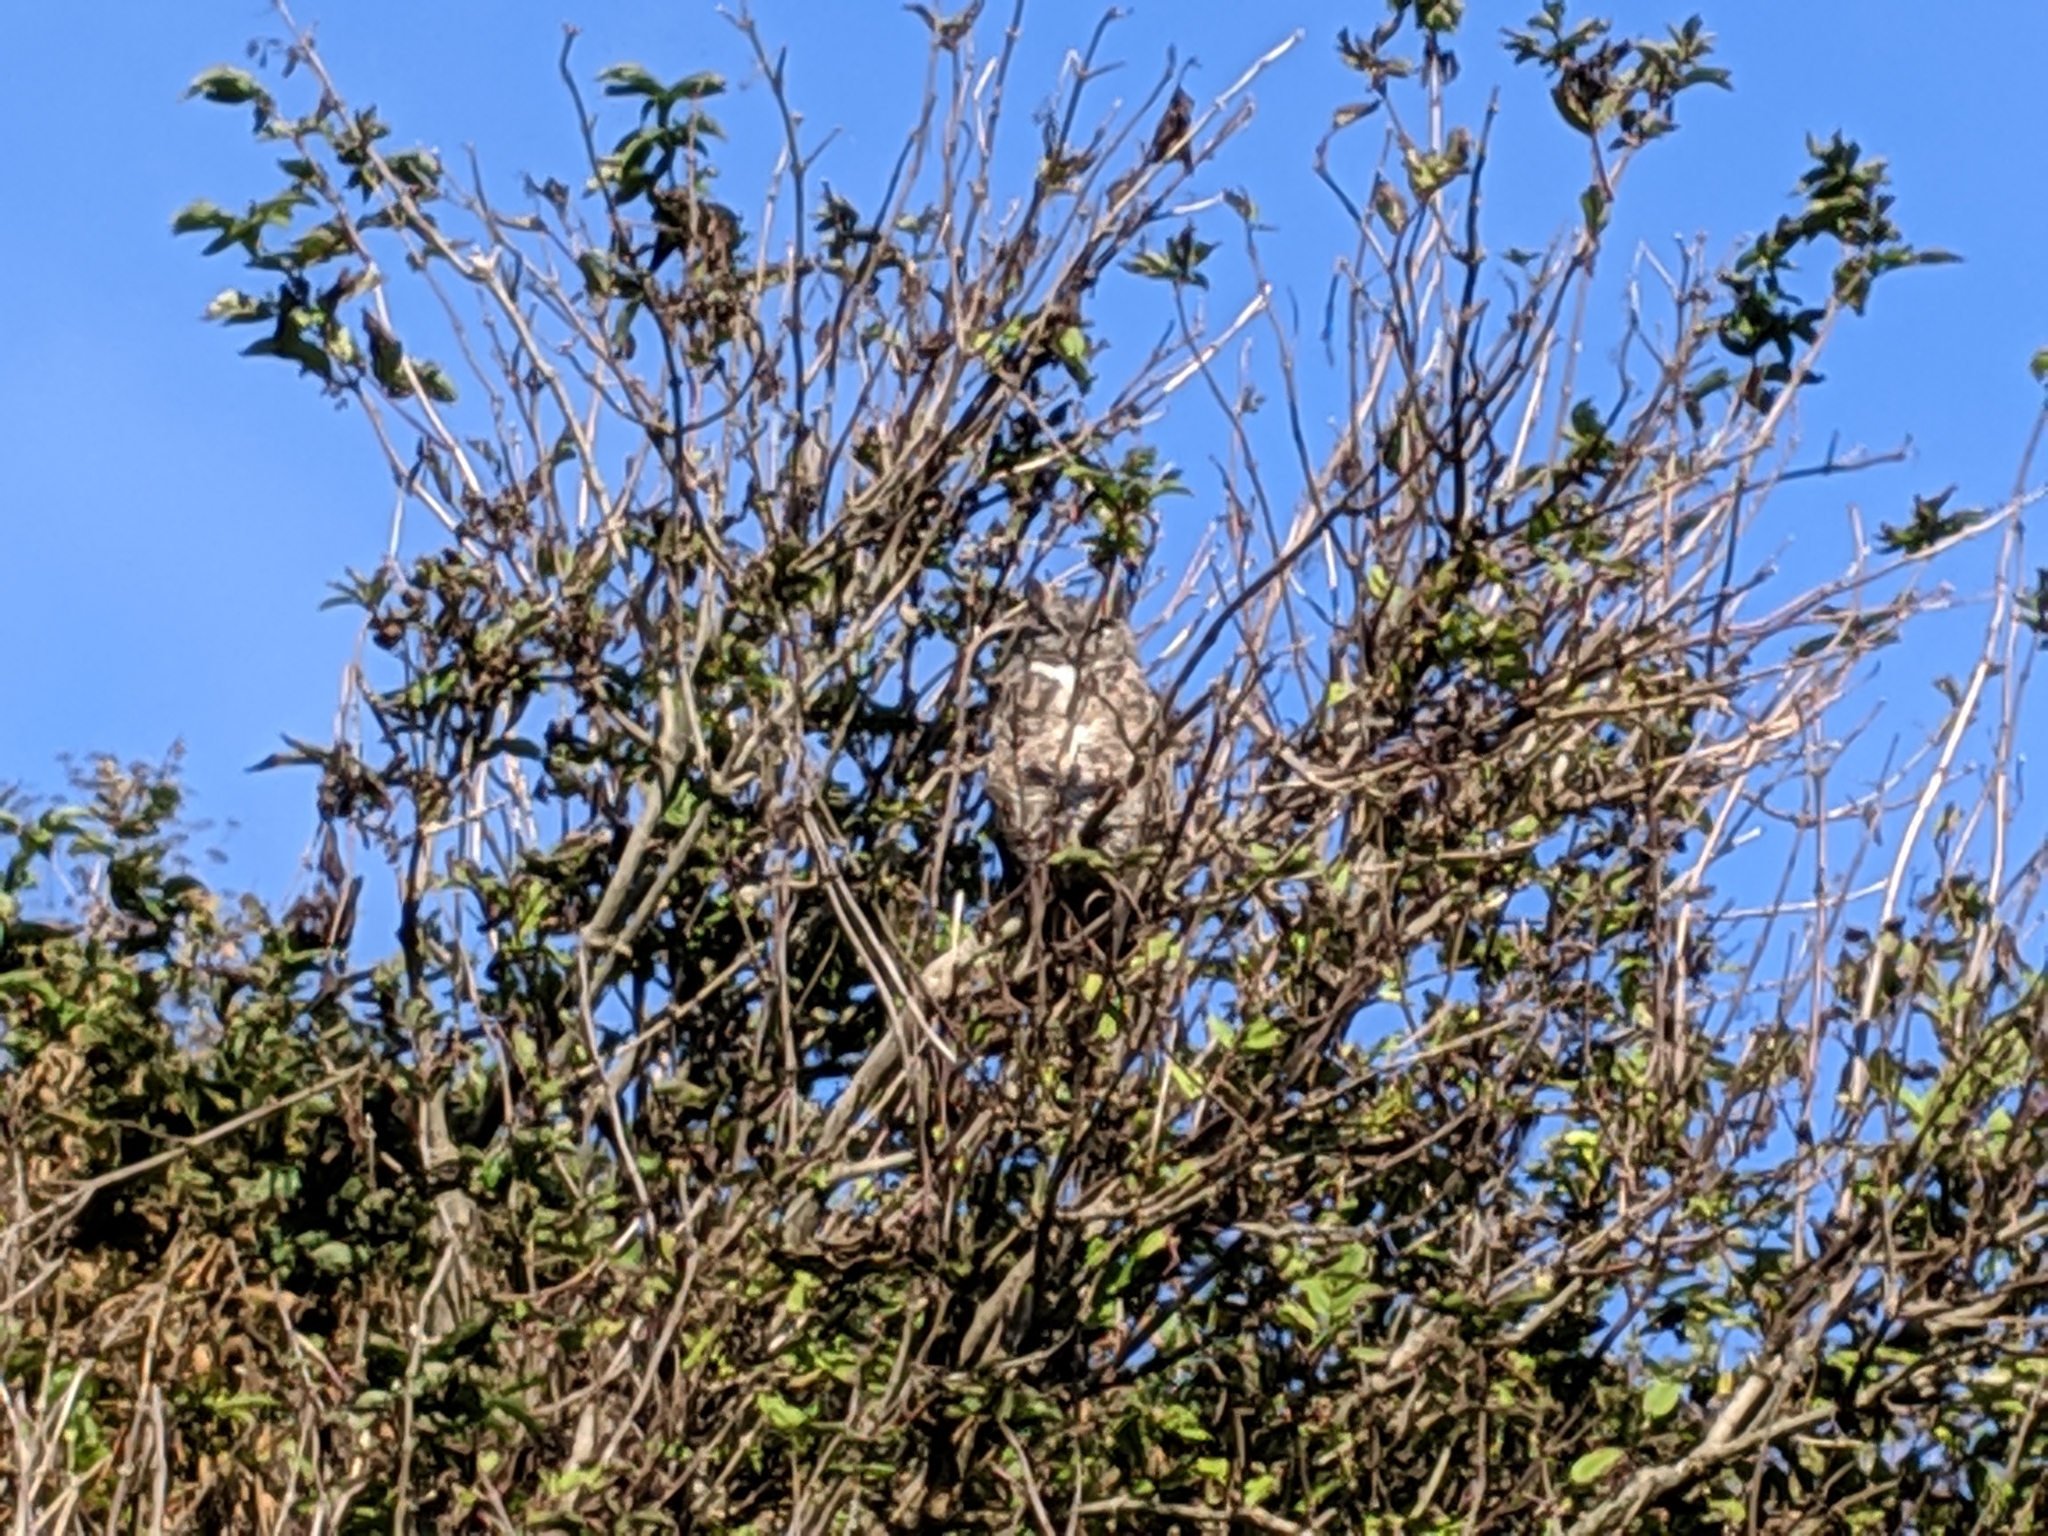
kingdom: Animalia
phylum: Chordata
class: Aves
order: Strigiformes
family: Strigidae
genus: Bubo
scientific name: Bubo virginianus
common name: Great horned owl
